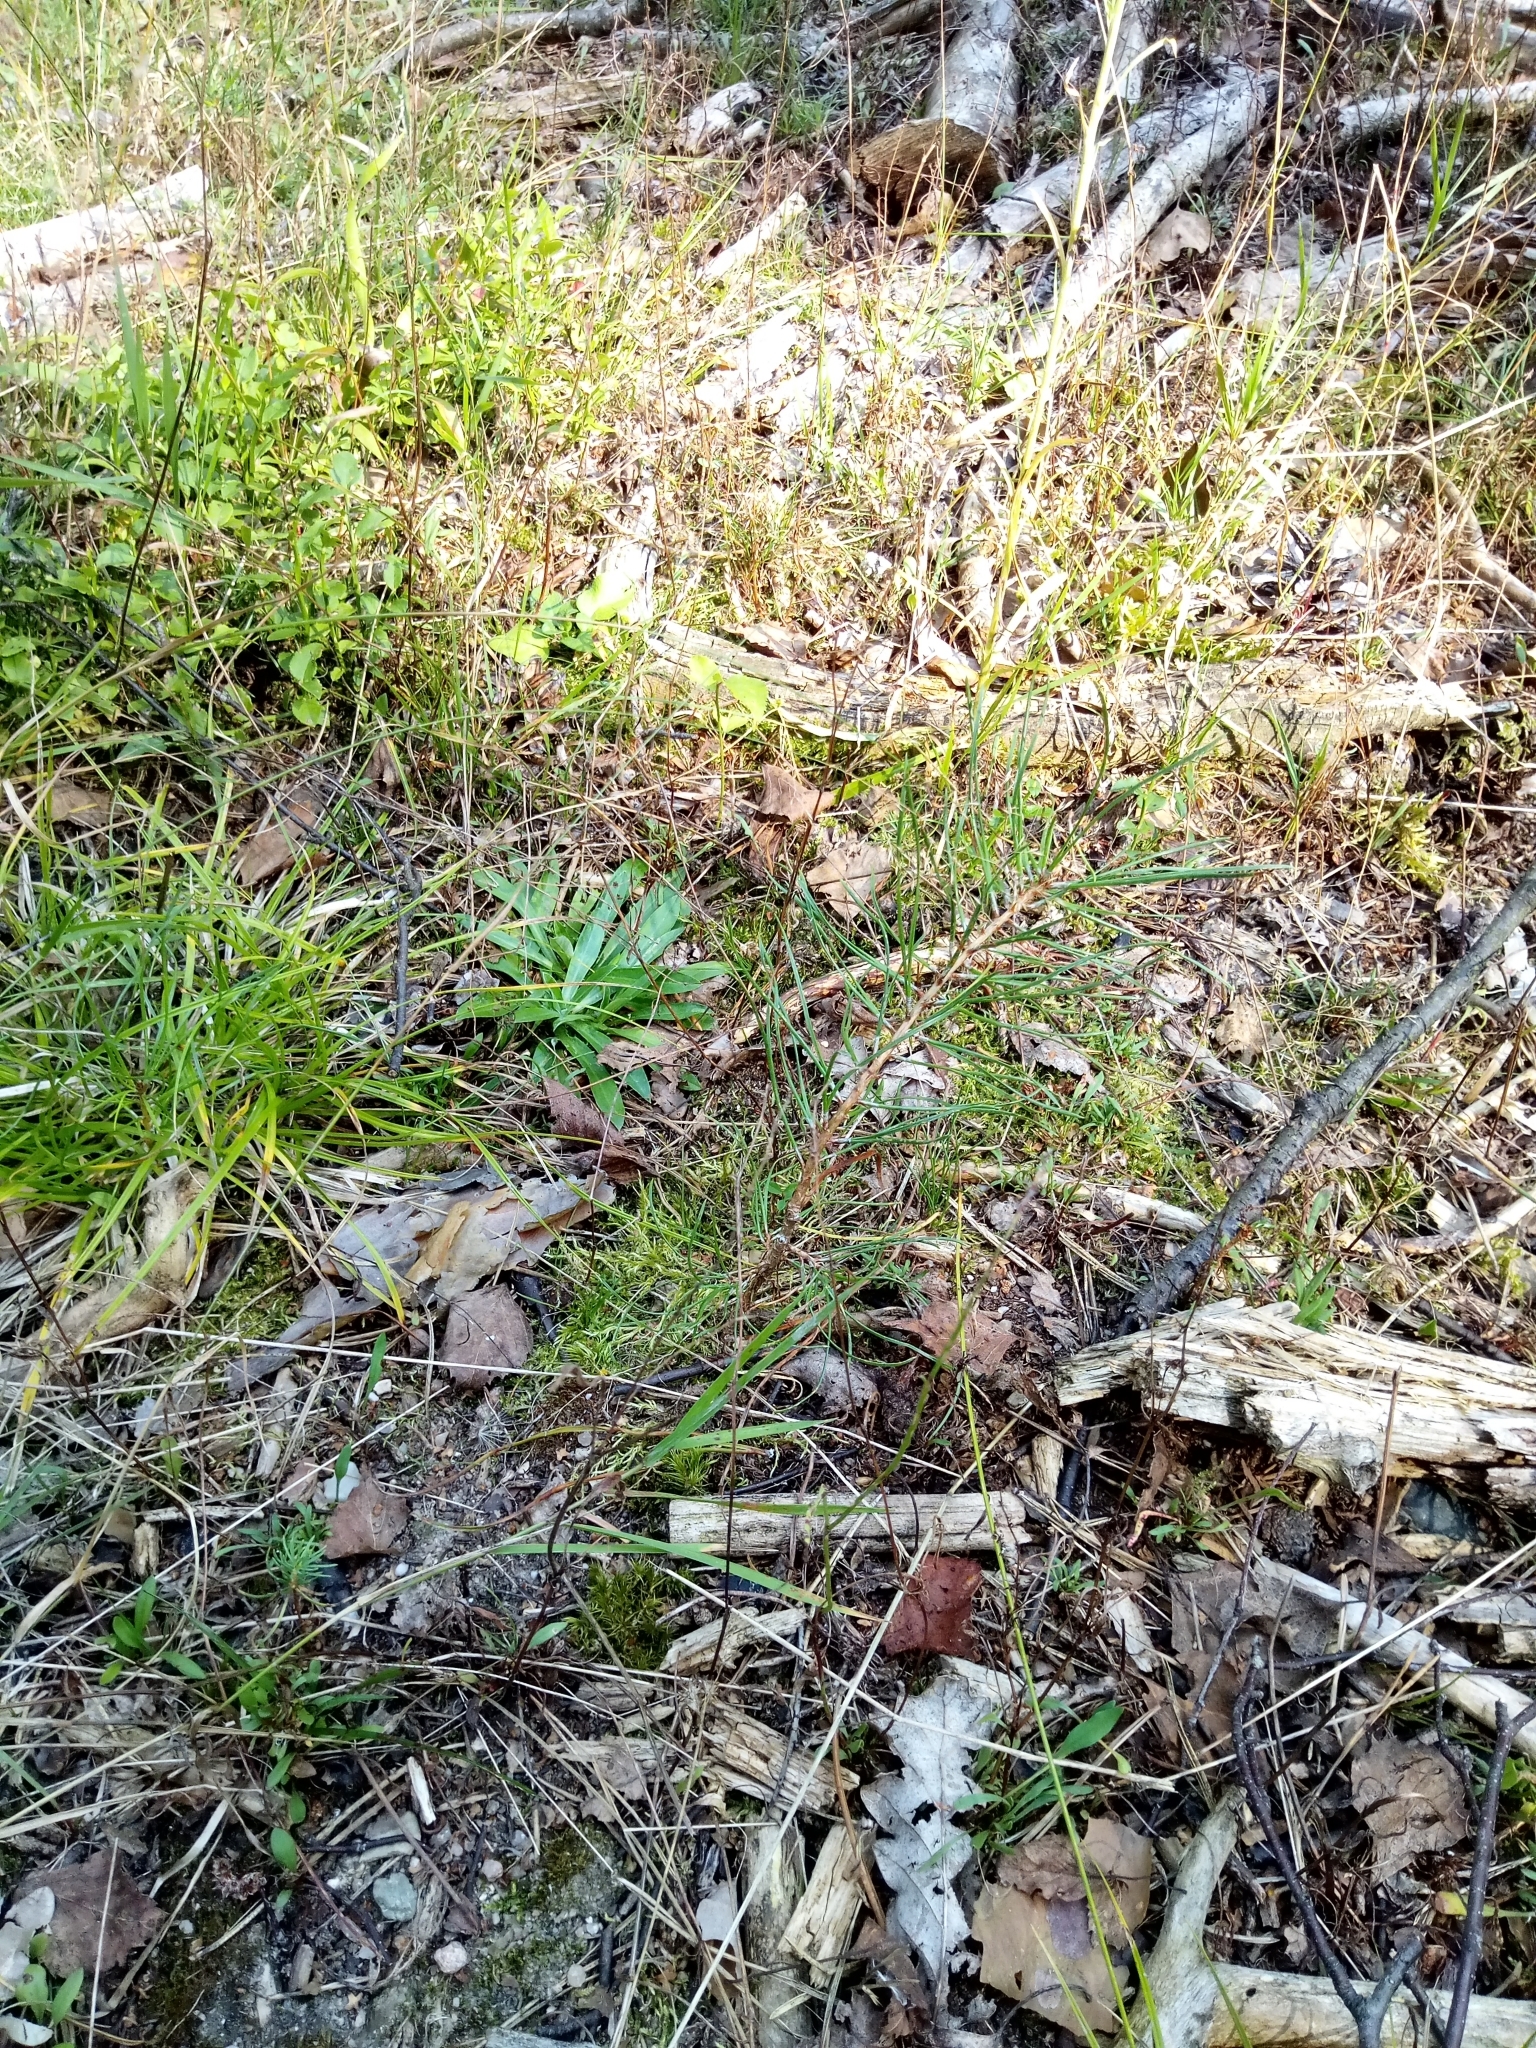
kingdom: Plantae
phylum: Tracheophyta
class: Pinopsida
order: Pinales
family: Pinaceae
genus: Pinus
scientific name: Pinus sylvestris
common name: Scots pine
